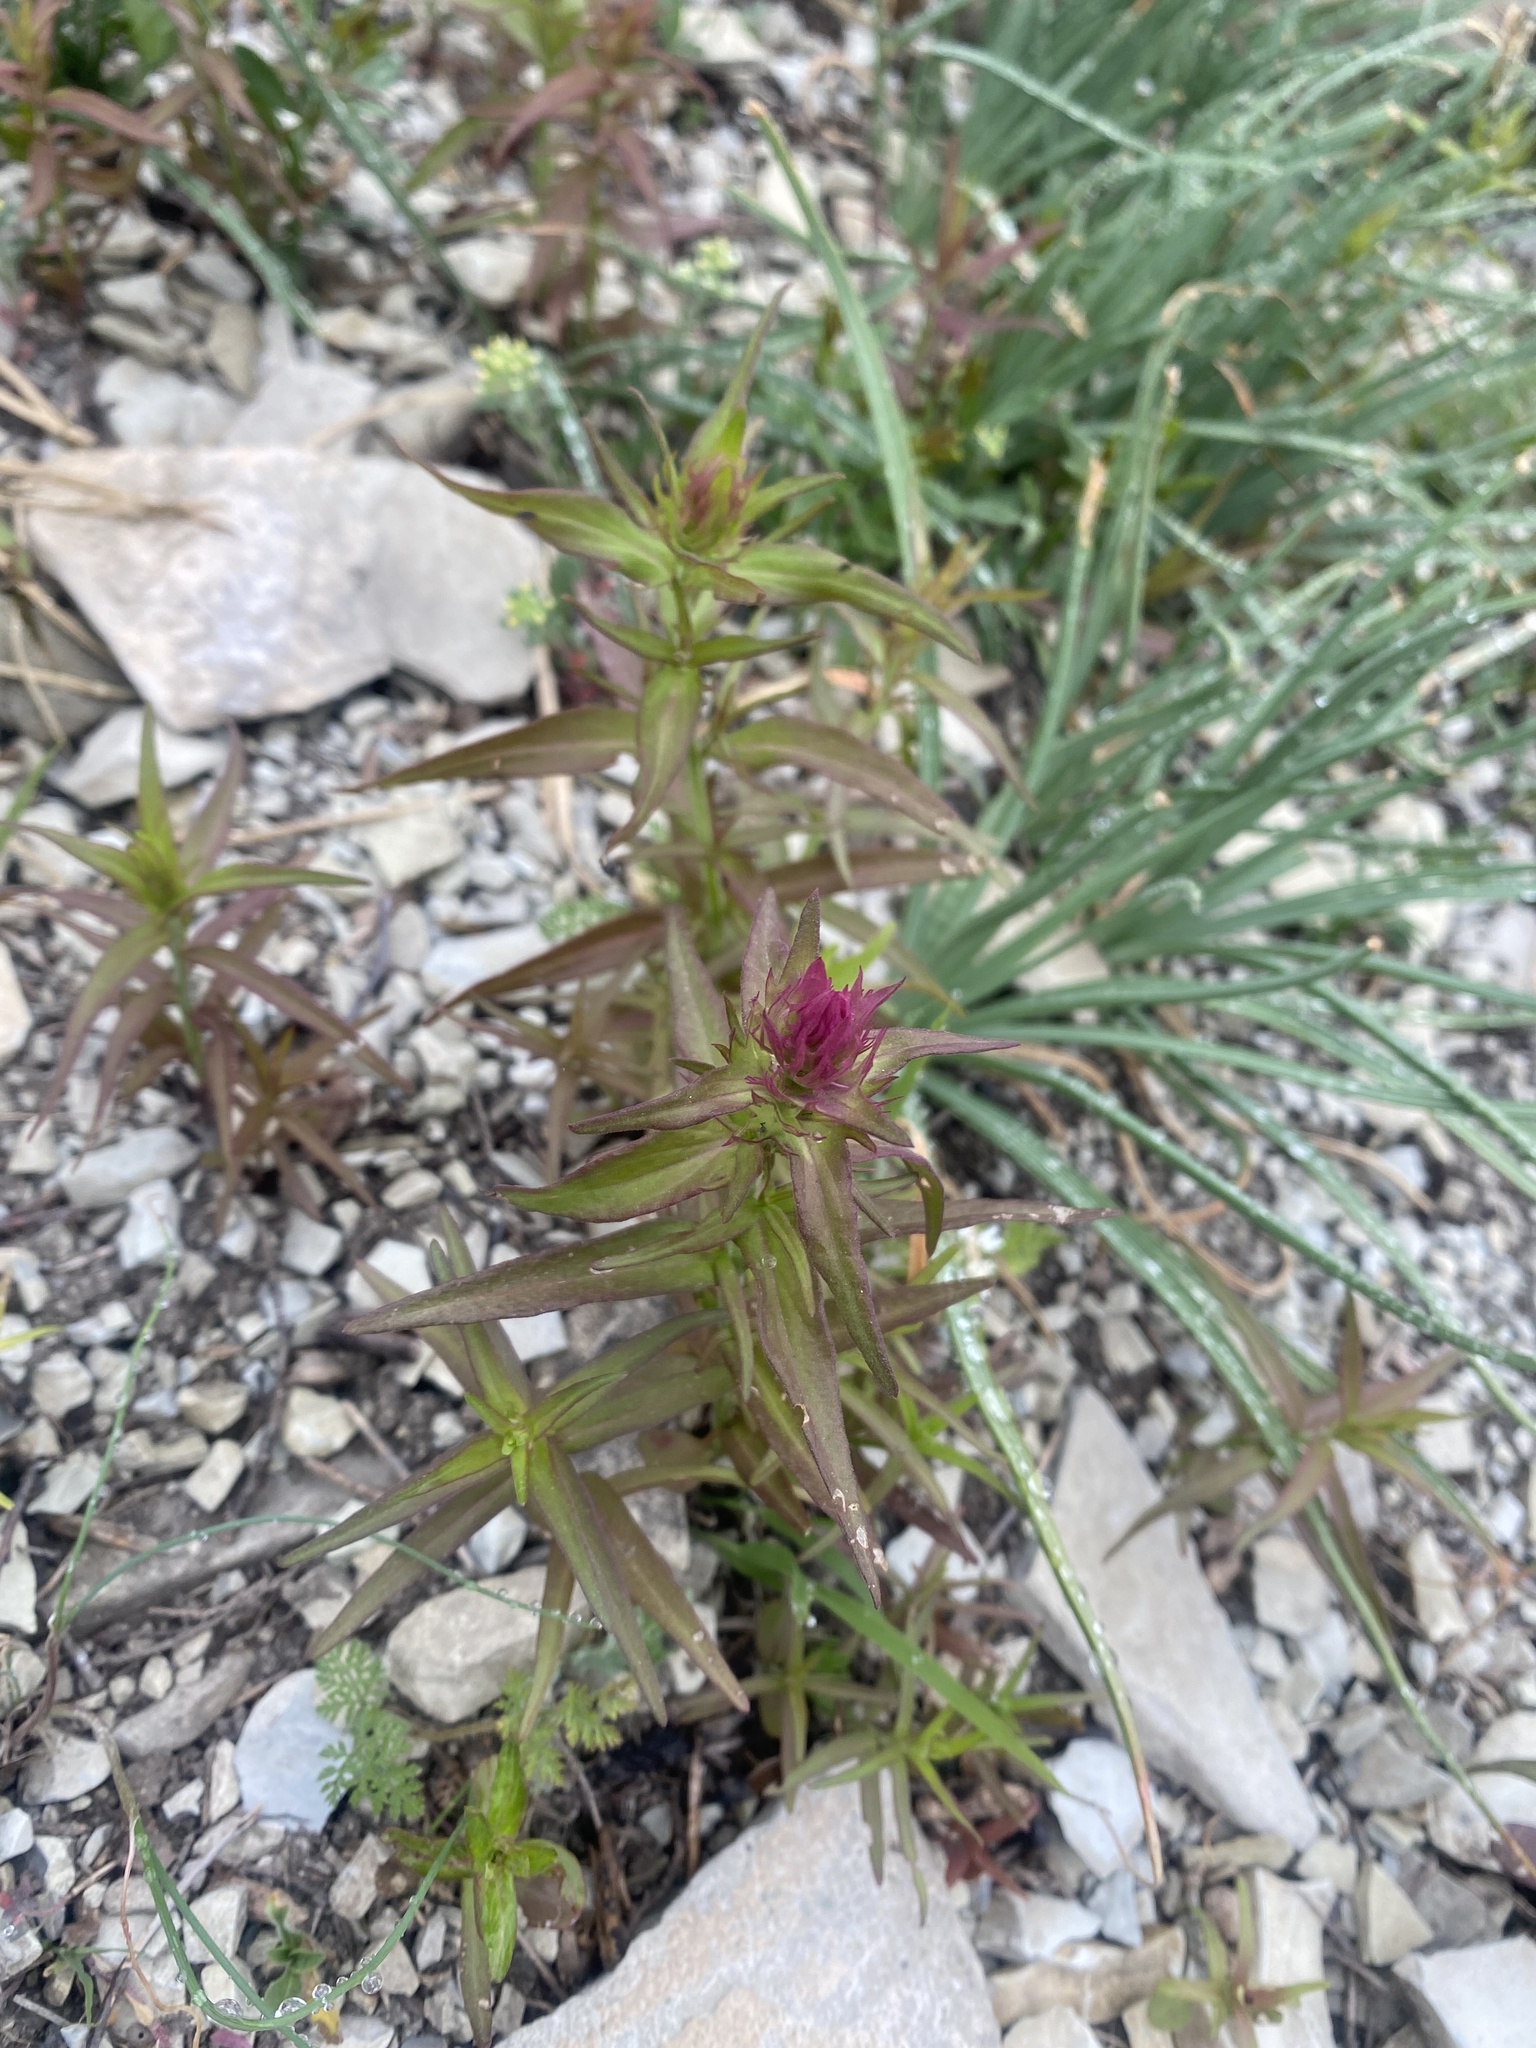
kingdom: Plantae
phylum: Tracheophyta
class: Magnoliopsida
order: Lamiales
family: Orobanchaceae
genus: Melampyrum
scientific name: Melampyrum arvense
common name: Field cow-wheat
